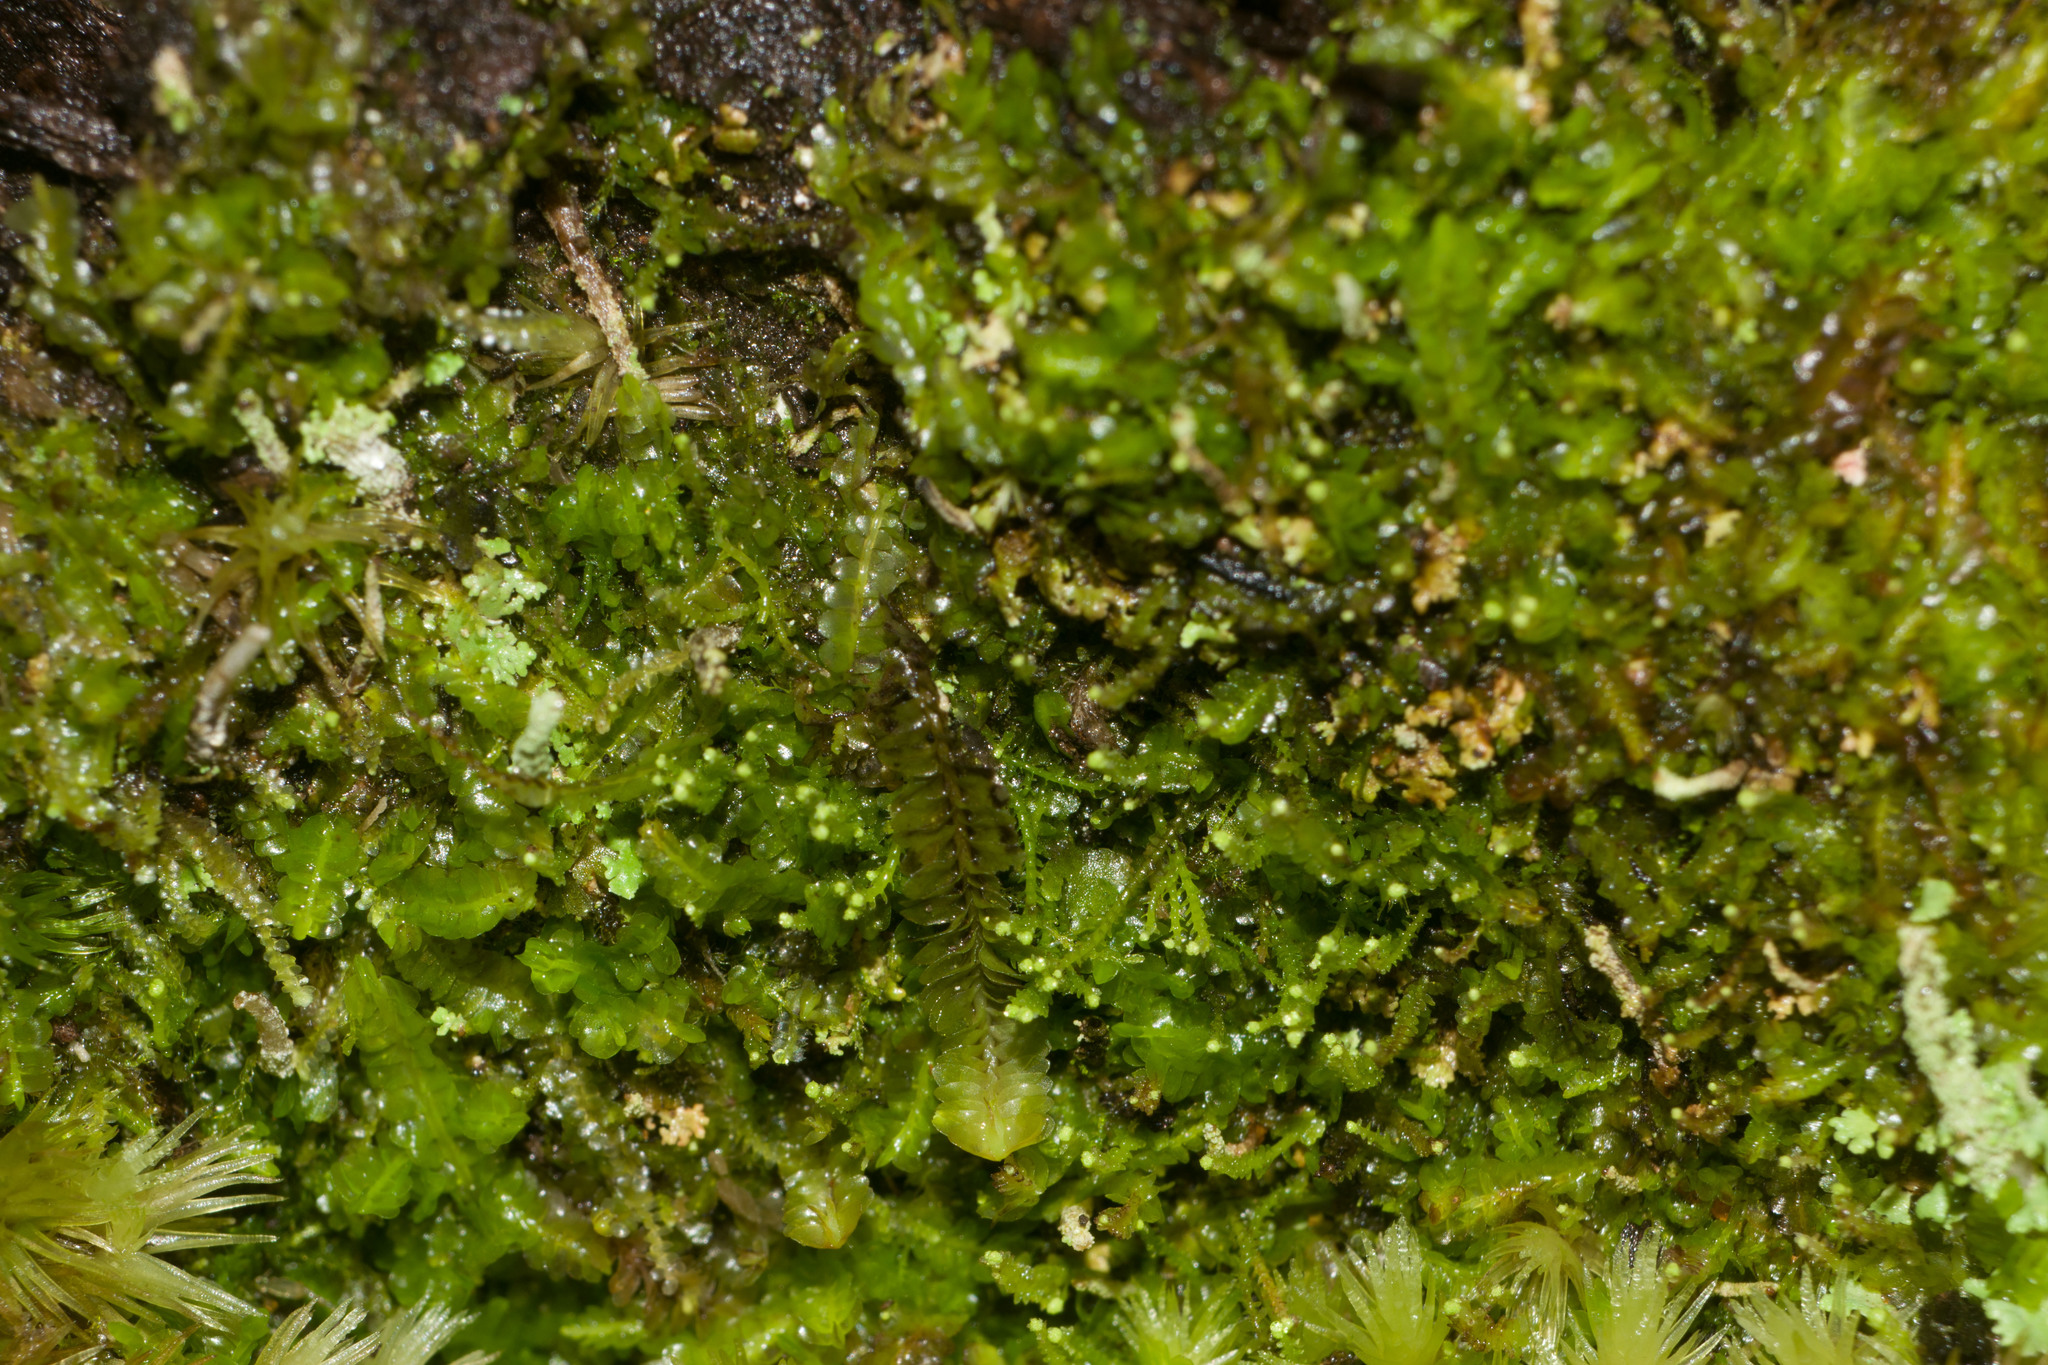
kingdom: Plantae
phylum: Marchantiophyta
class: Jungermanniopsida
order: Jungermanniales
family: Cephaloziaceae
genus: Odontoschisma
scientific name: Odontoschisma denudatum
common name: Matchstick flapwort
